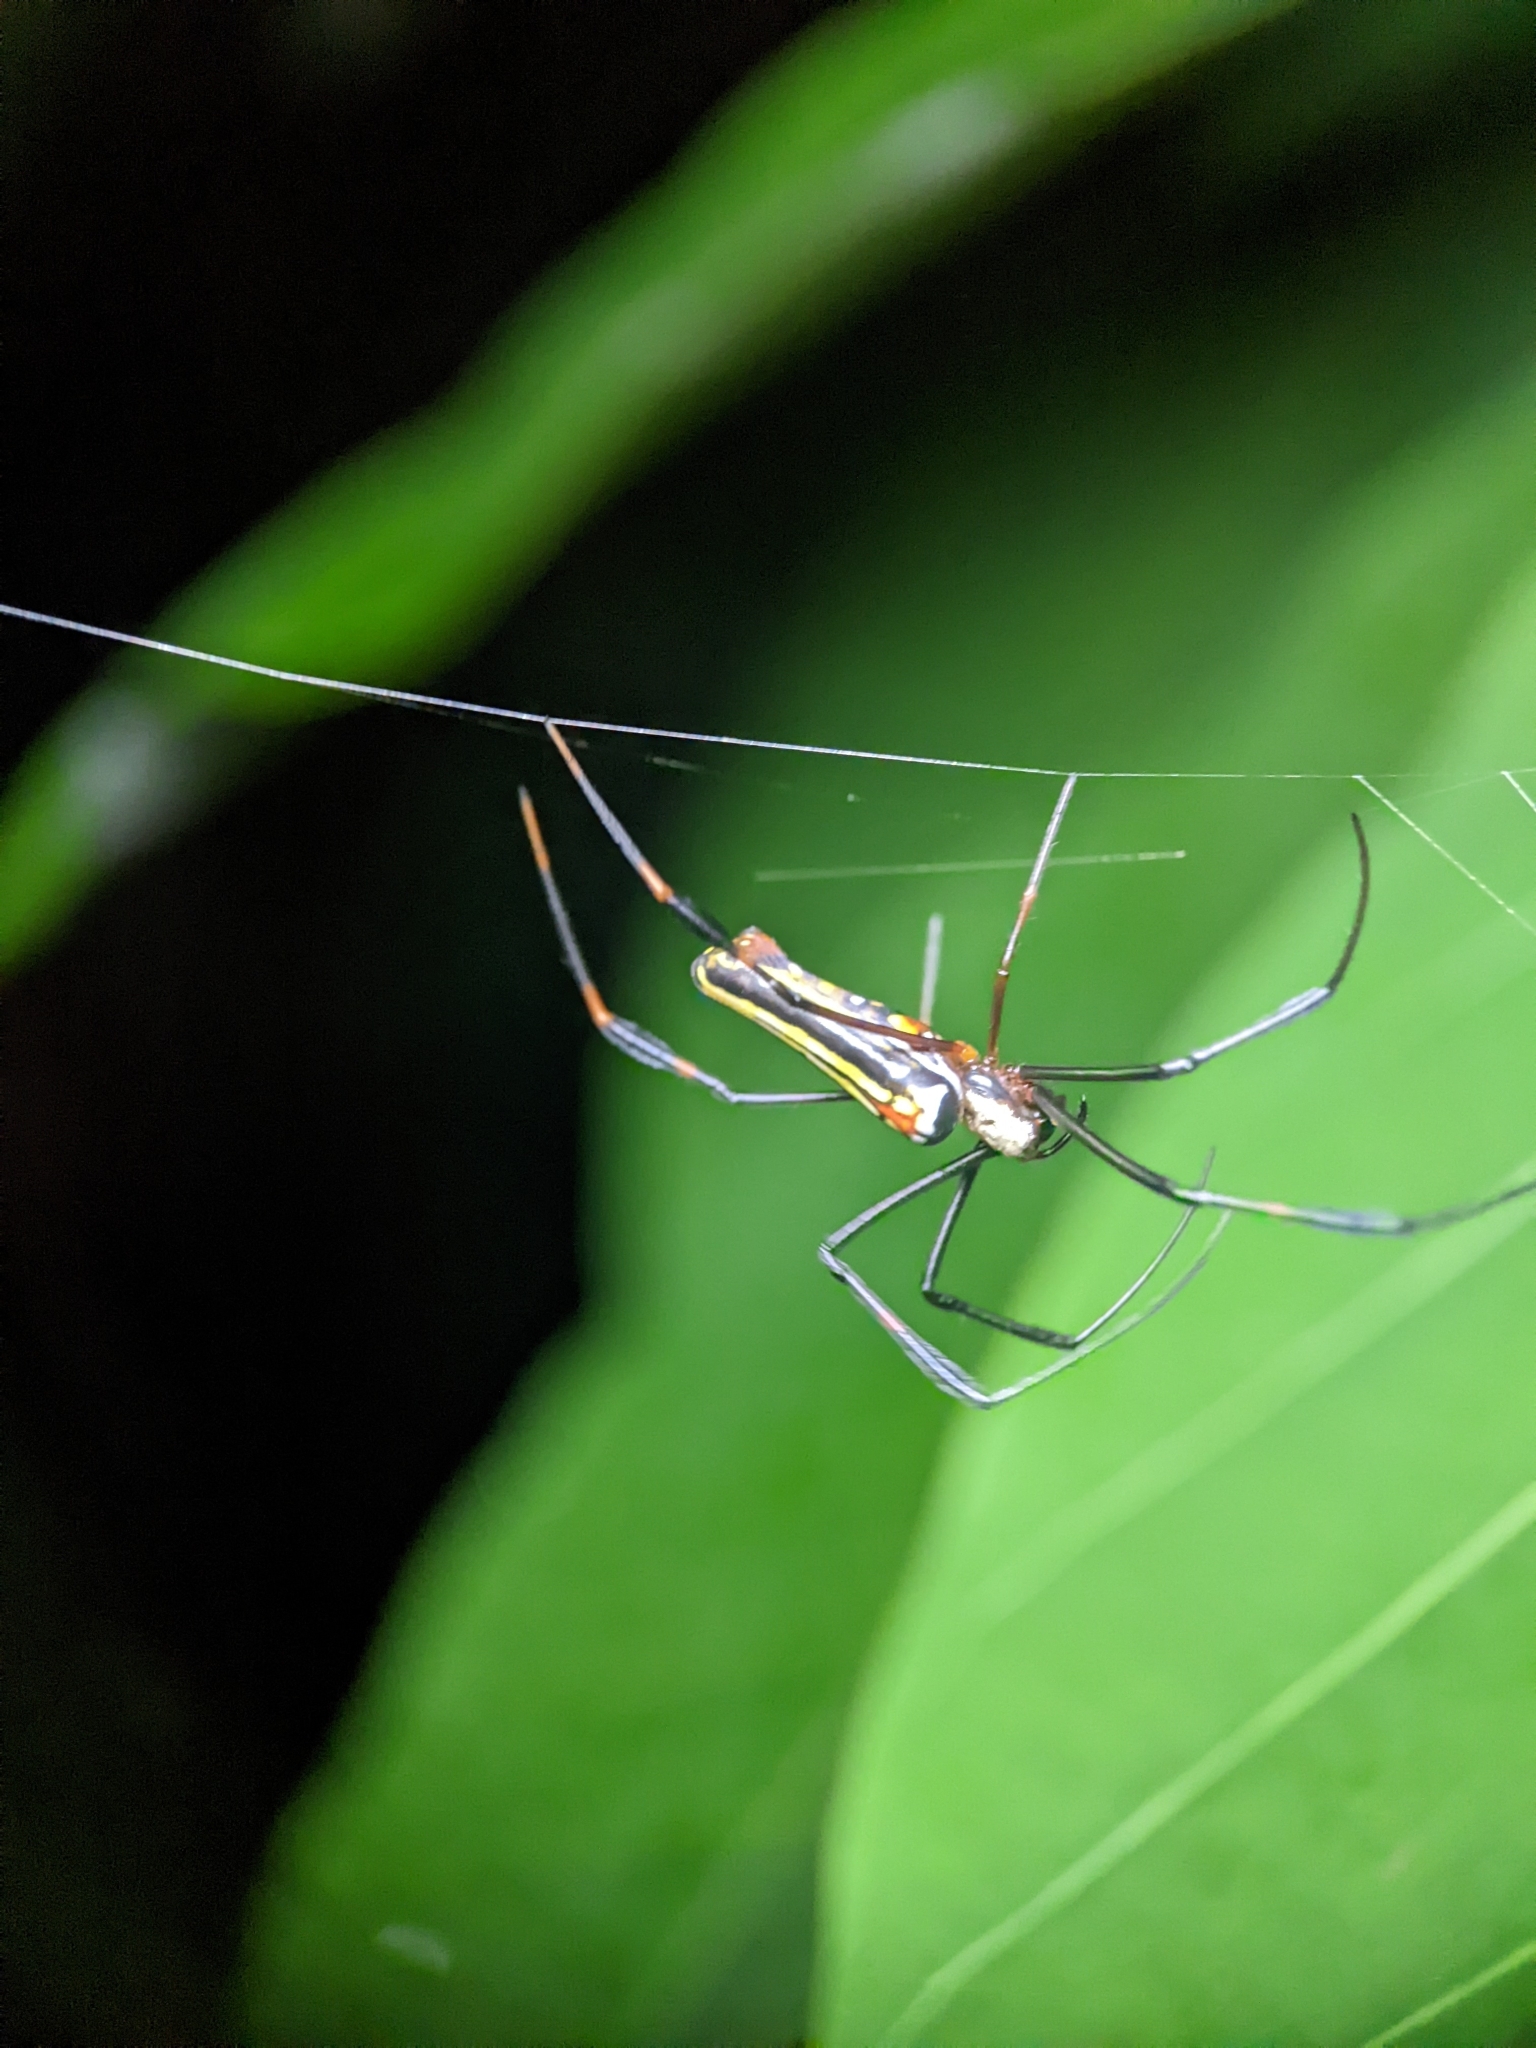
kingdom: Animalia
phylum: Arthropoda
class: Arachnida
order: Araneae
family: Araneidae
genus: Nephila
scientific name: Nephila pilipes
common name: Giant golden orb weaver
